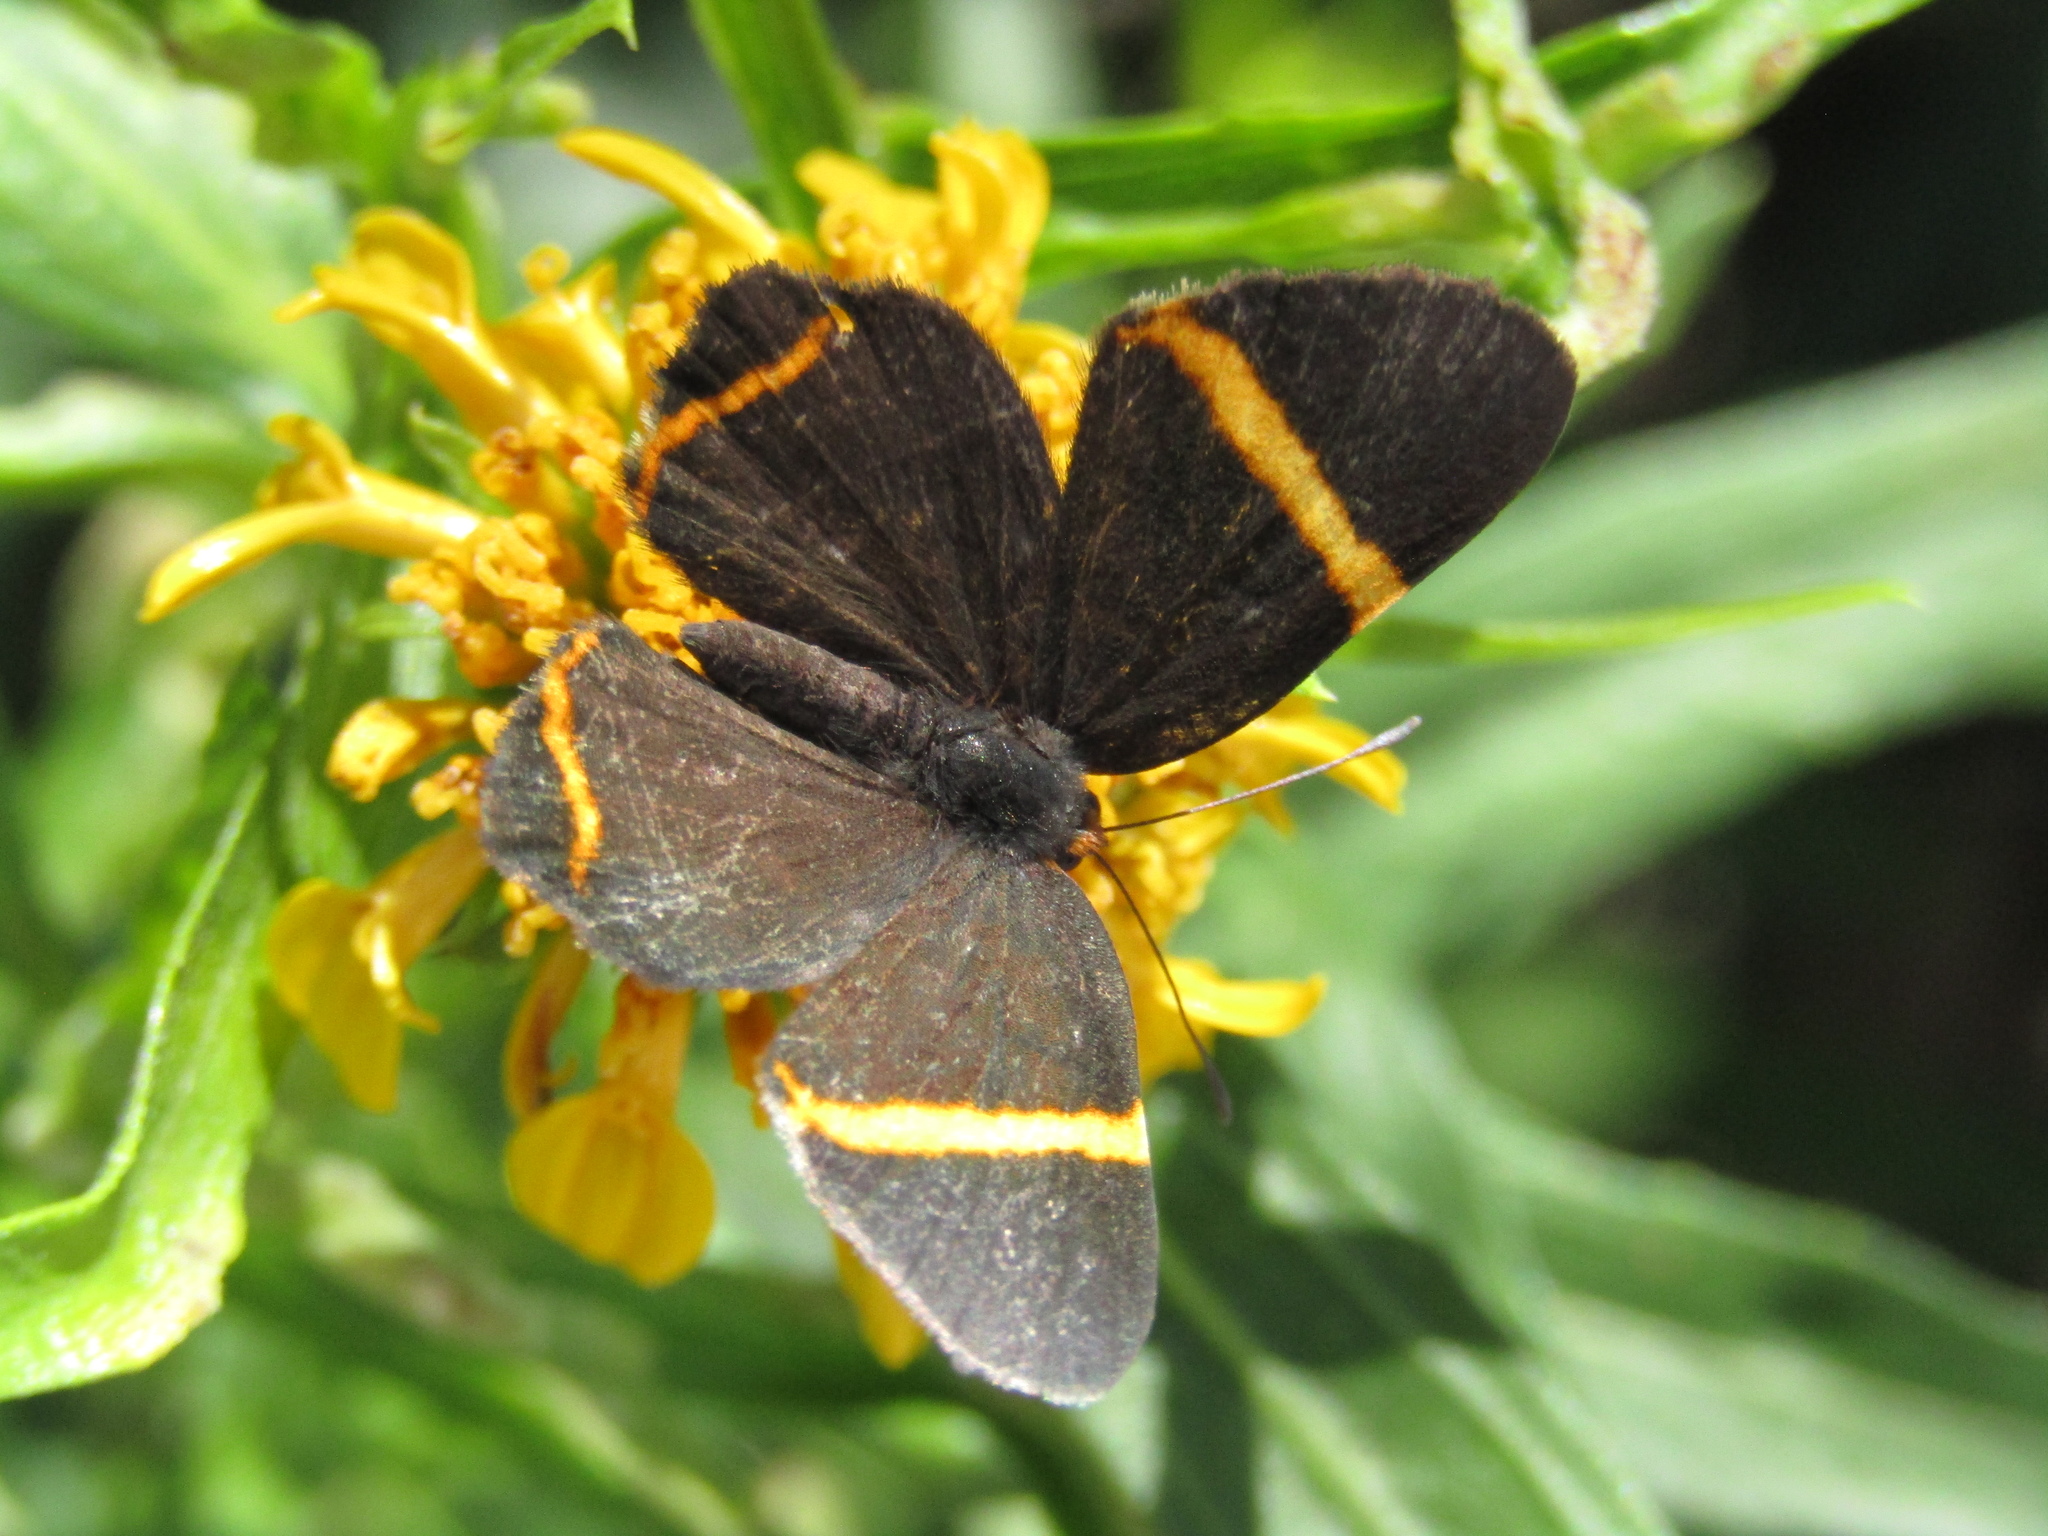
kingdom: Animalia
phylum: Arthropoda
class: Insecta
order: Lepidoptera
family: Riodinidae
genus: Riodina
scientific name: Riodina lysippoides
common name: Little dancer metalmark
